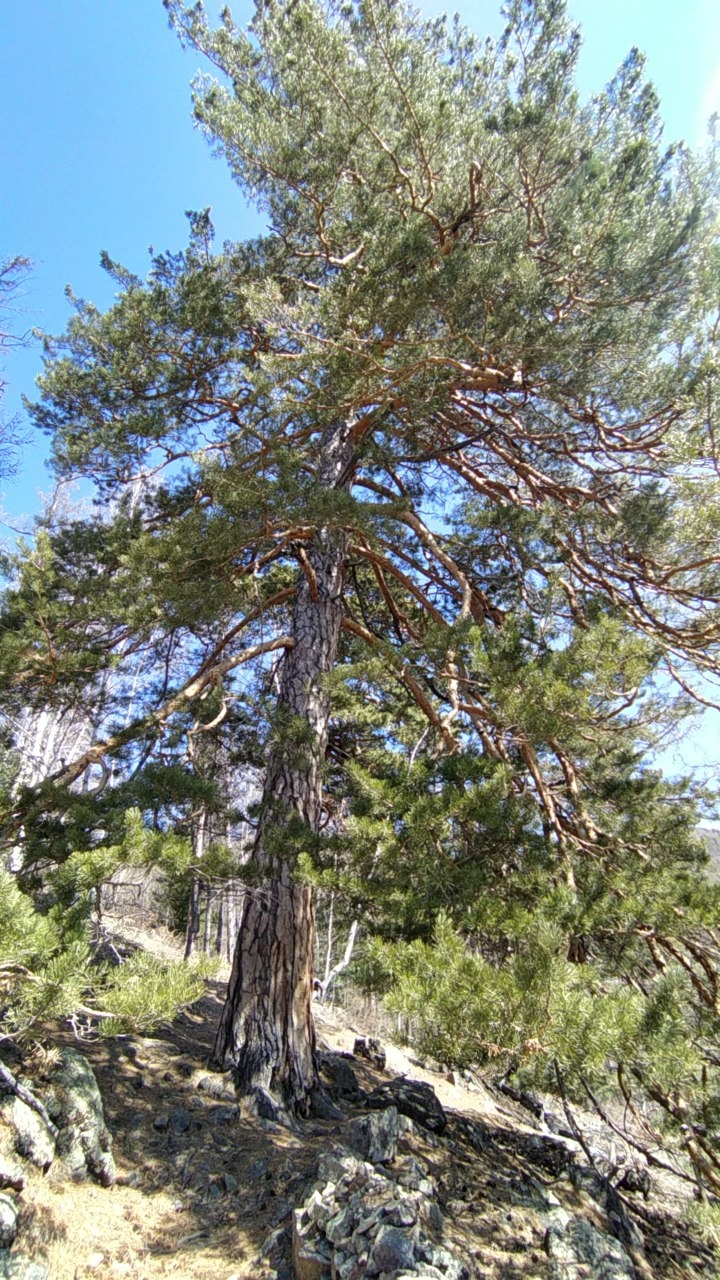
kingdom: Plantae
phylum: Tracheophyta
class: Pinopsida
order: Pinales
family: Pinaceae
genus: Pinus
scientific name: Pinus sylvestris
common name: Scots pine
